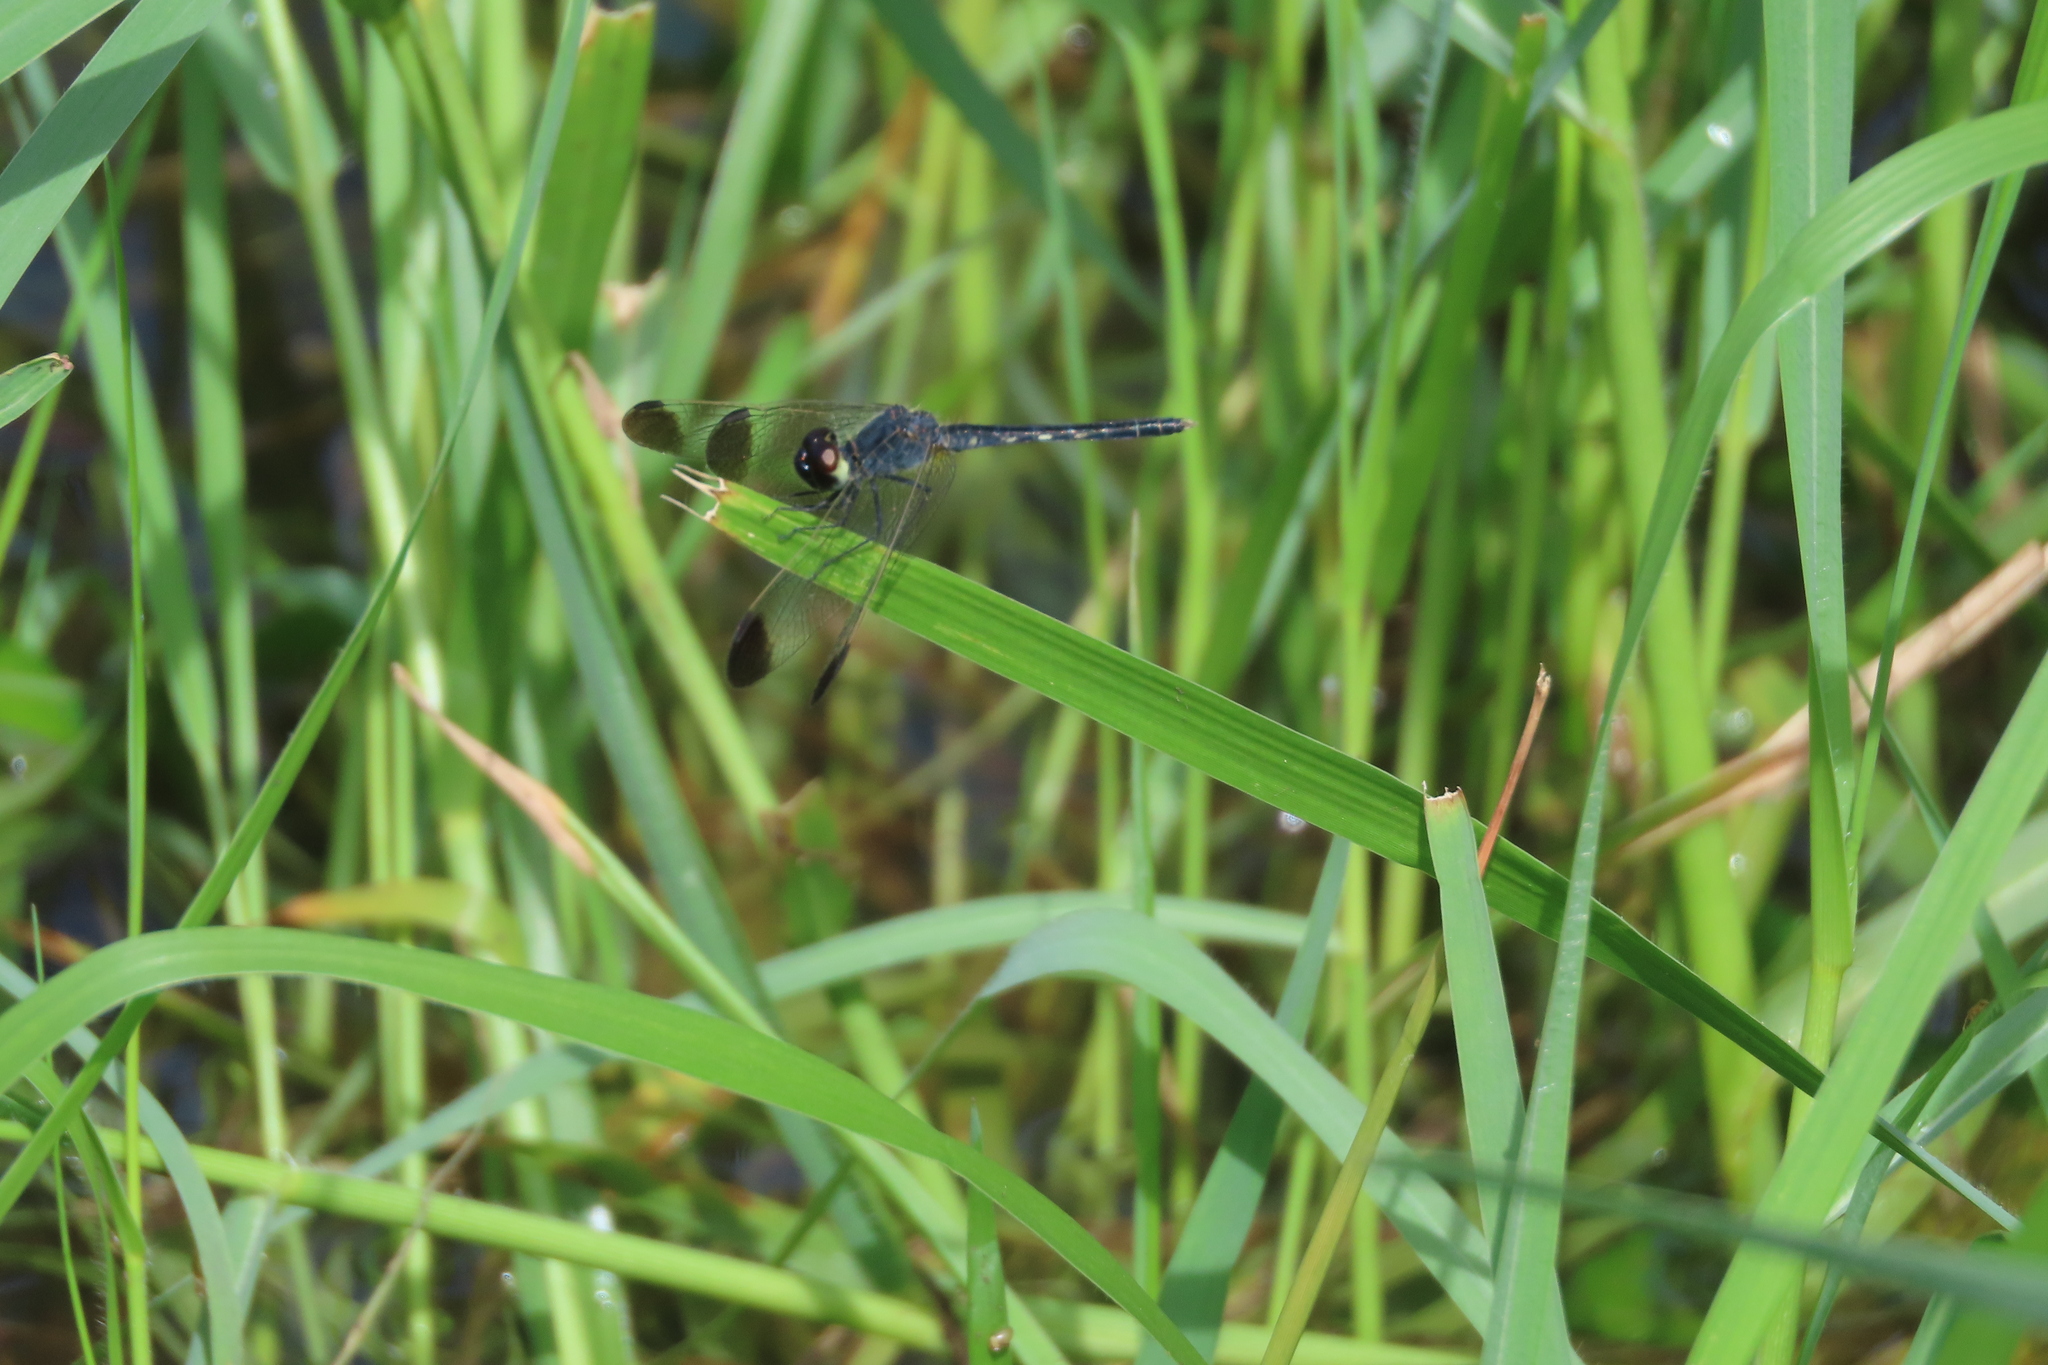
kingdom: Animalia
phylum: Arthropoda
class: Insecta
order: Odonata
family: Libellulidae
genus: Diplacodes
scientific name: Diplacodes nebulosa
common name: Black-tipped percher
